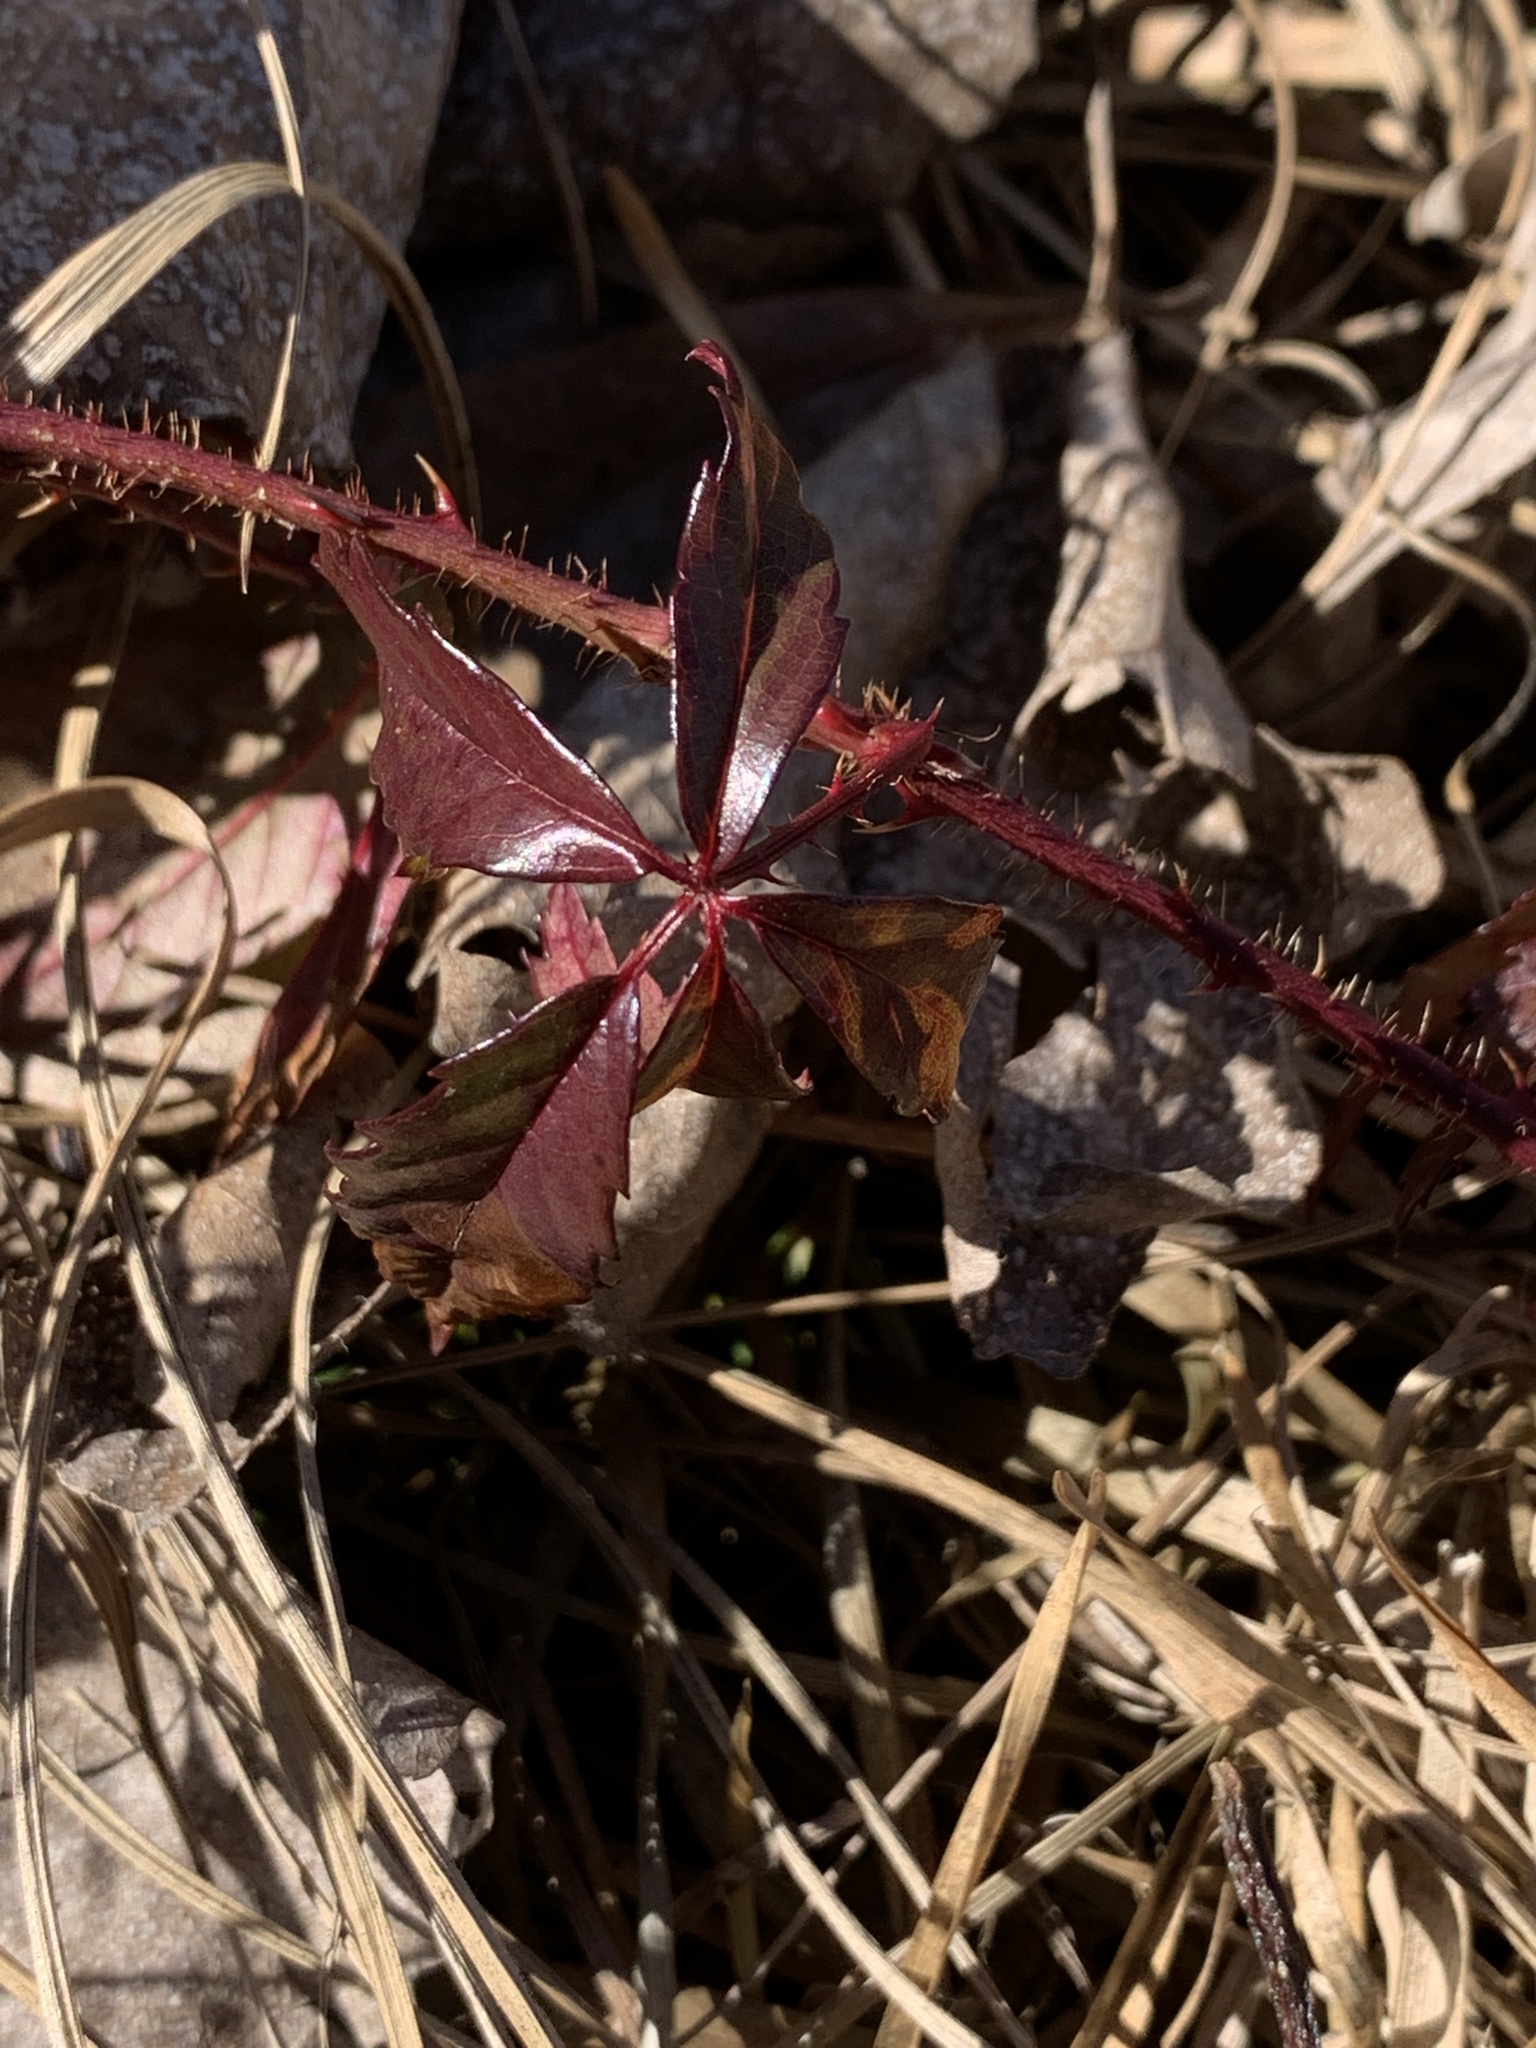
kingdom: Plantae
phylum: Tracheophyta
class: Magnoliopsida
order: Rosales
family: Rosaceae
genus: Rubus
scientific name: Rubus trivialis
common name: Southern dewberry
